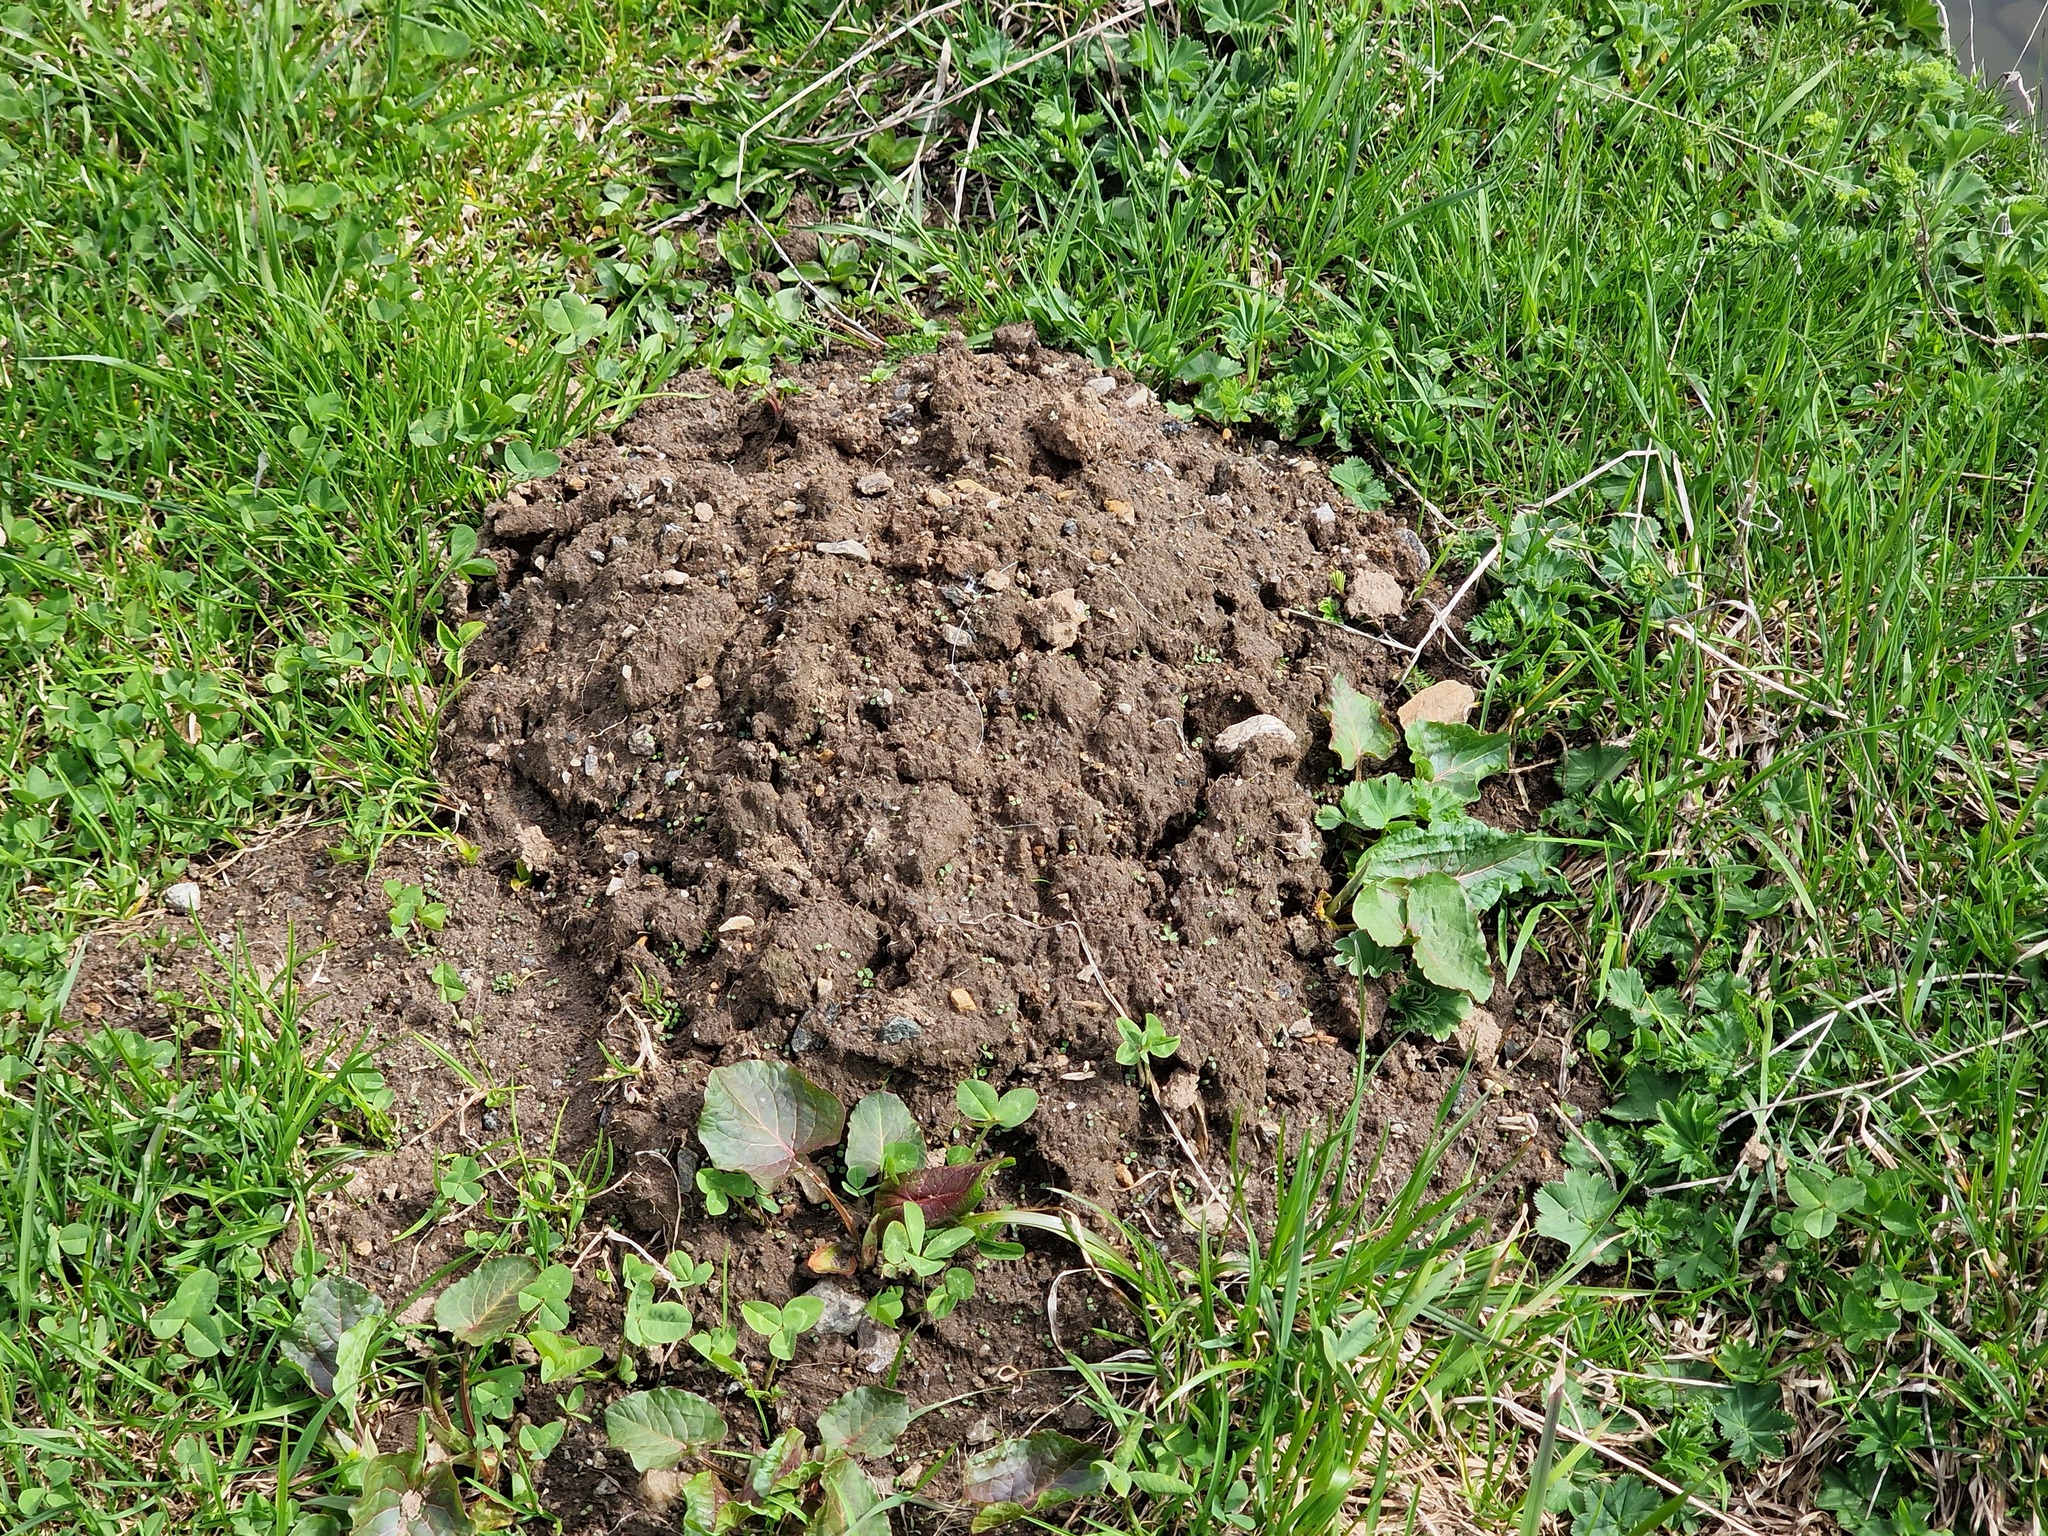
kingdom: Animalia
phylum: Chordata
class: Mammalia
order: Soricomorpha
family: Talpidae
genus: Talpa
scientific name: Talpa europaea
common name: European mole
